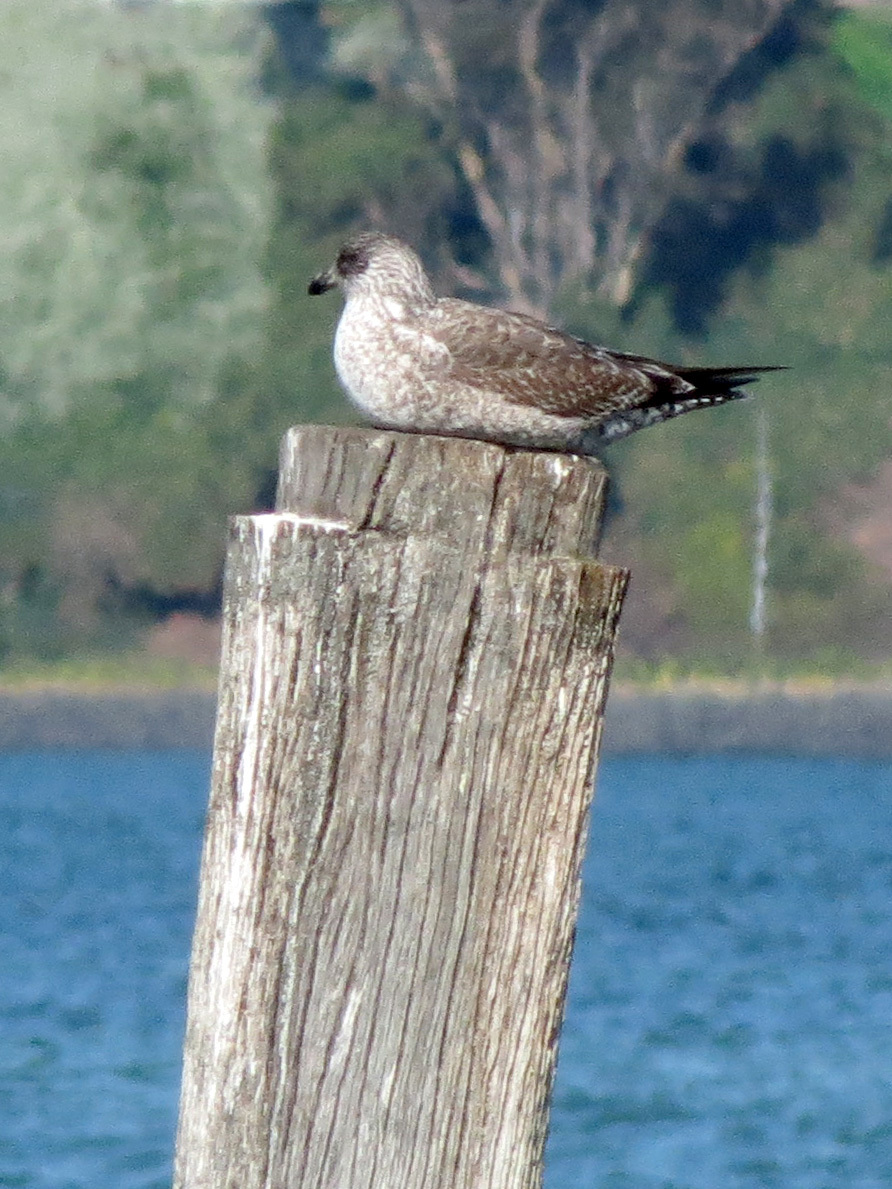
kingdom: Animalia
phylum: Chordata
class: Aves
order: Charadriiformes
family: Laridae
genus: Larus
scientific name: Larus dominicanus
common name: Kelp gull
